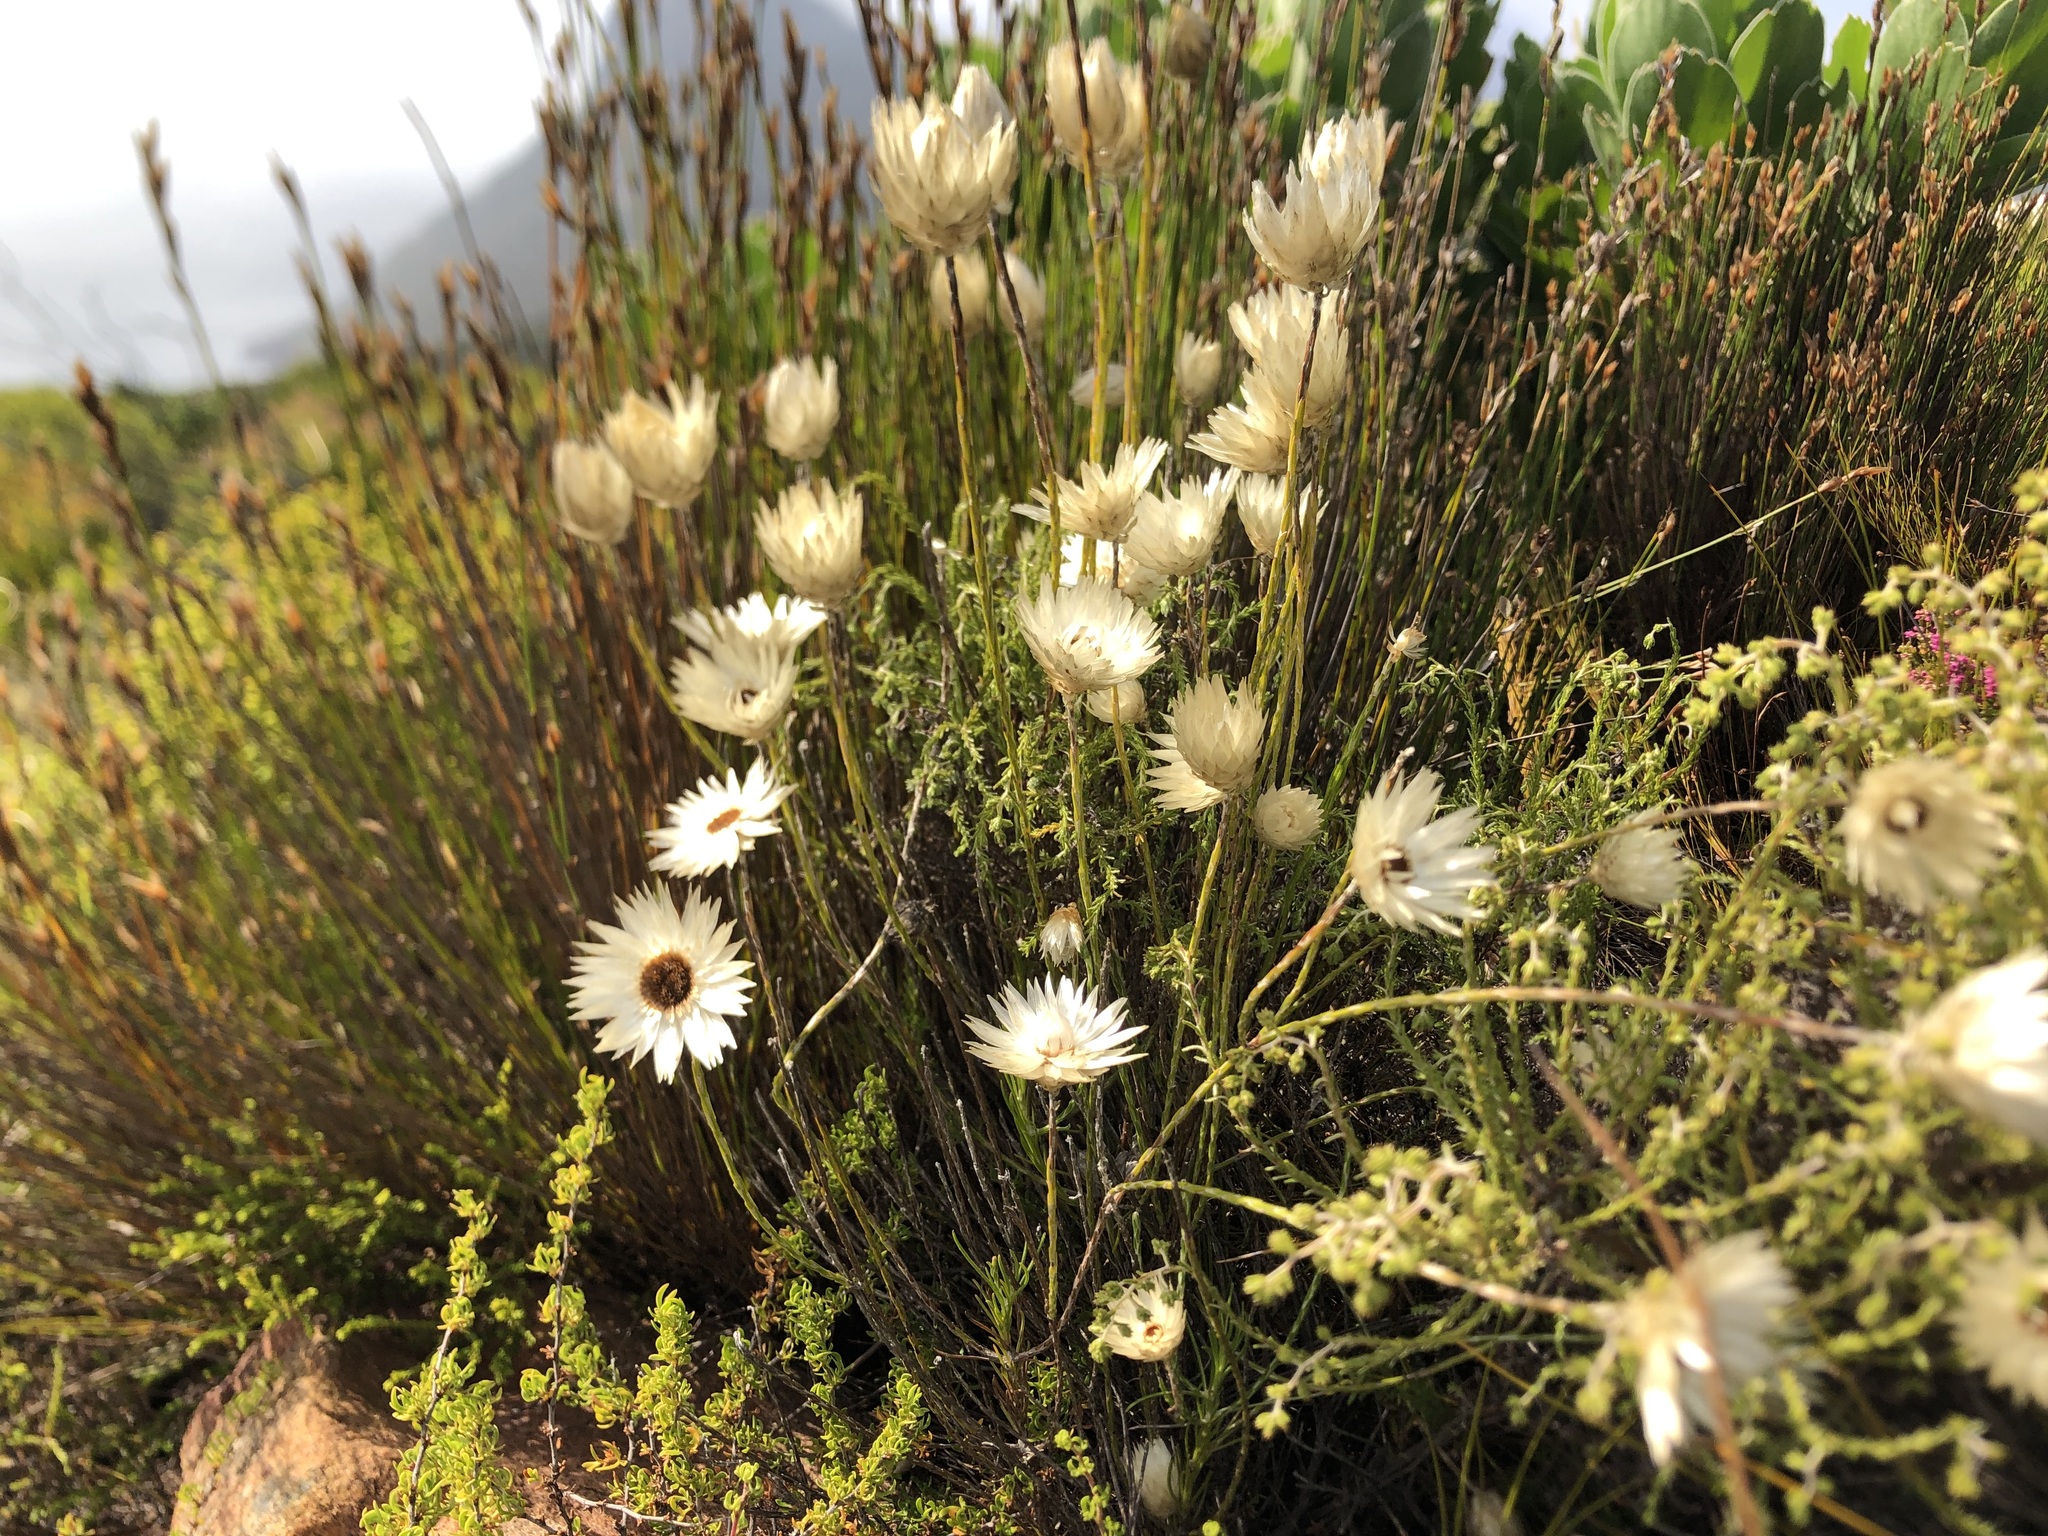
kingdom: Plantae
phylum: Tracheophyta
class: Magnoliopsida
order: Asterales
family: Asteraceae
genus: Edmondia
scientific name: Edmondia sesamoides
